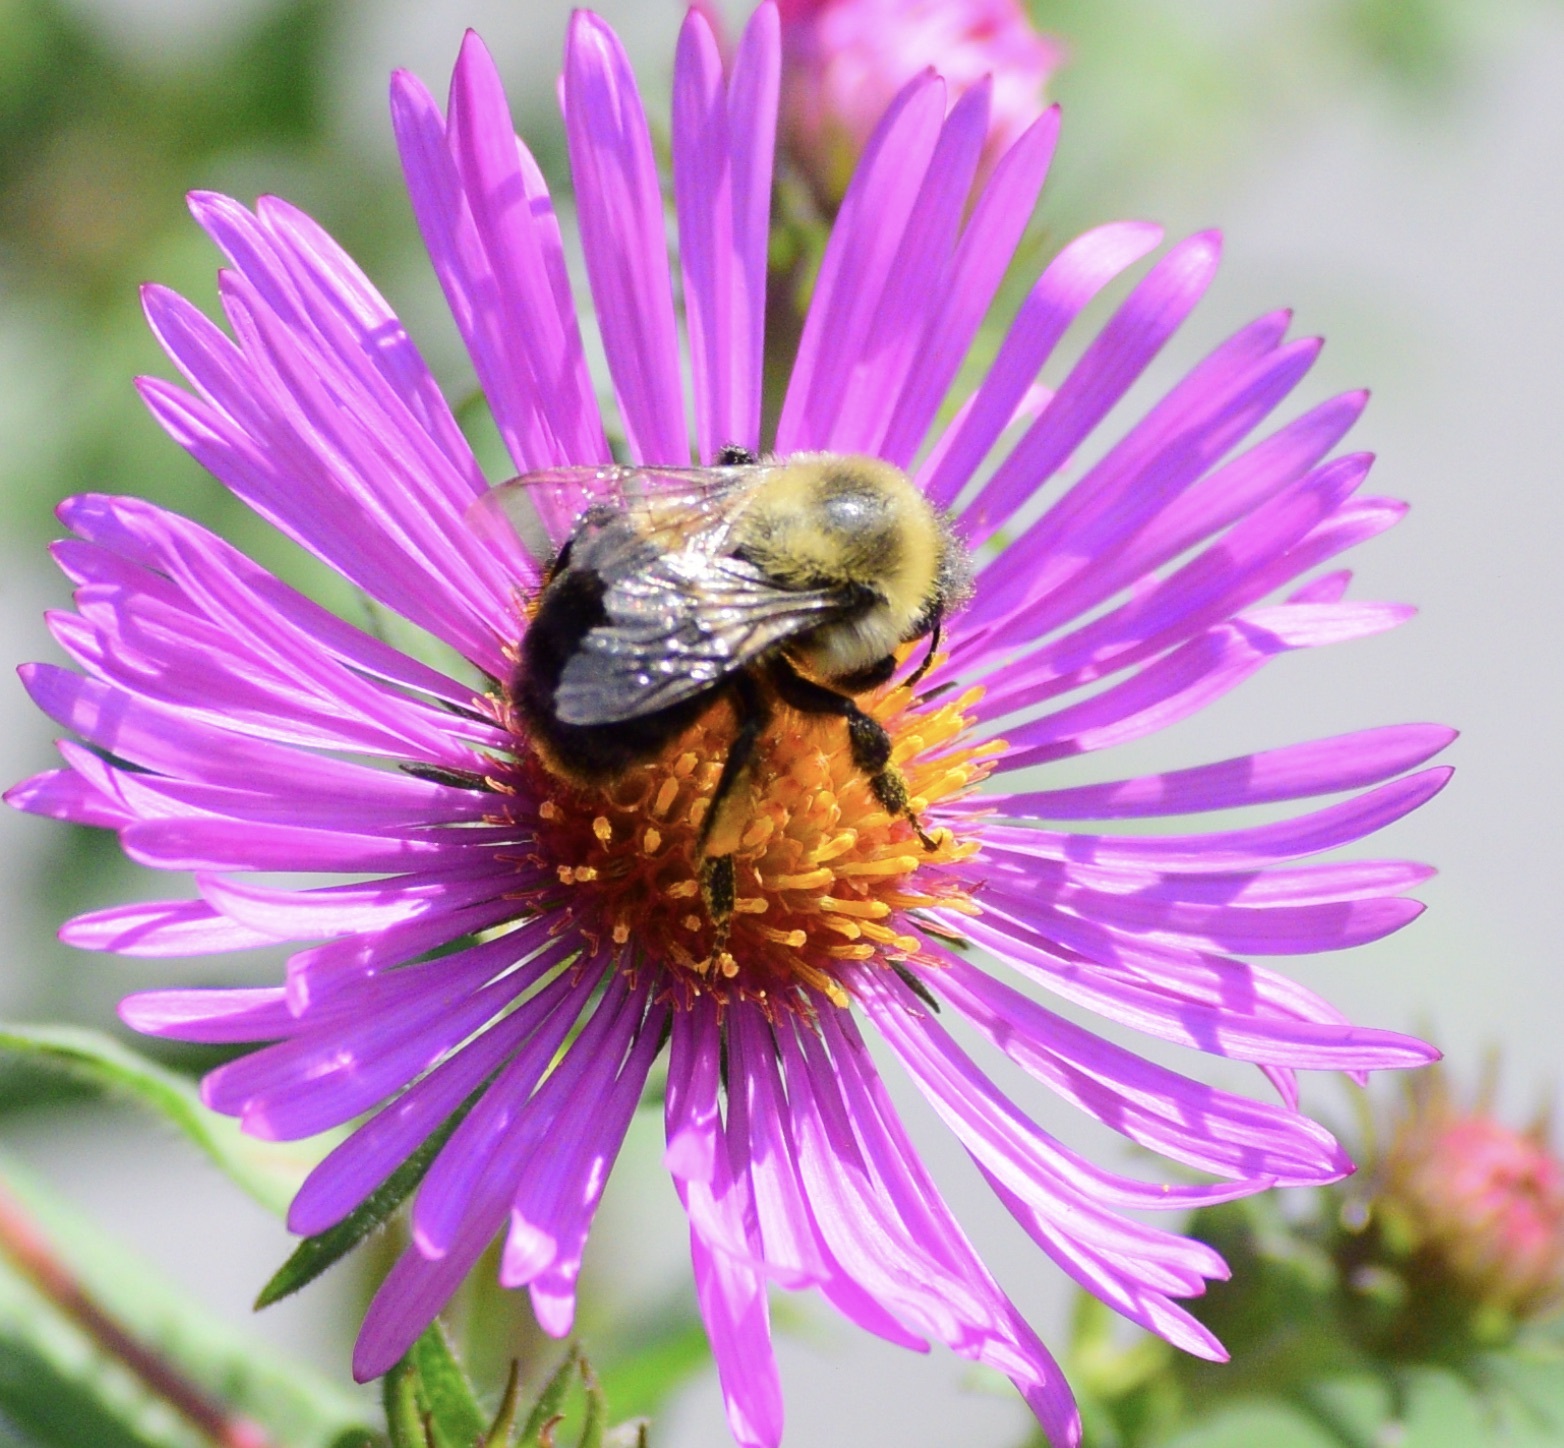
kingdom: Animalia
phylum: Arthropoda
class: Insecta
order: Hymenoptera
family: Apidae
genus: Bombus
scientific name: Bombus impatiens
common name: Common eastern bumble bee
